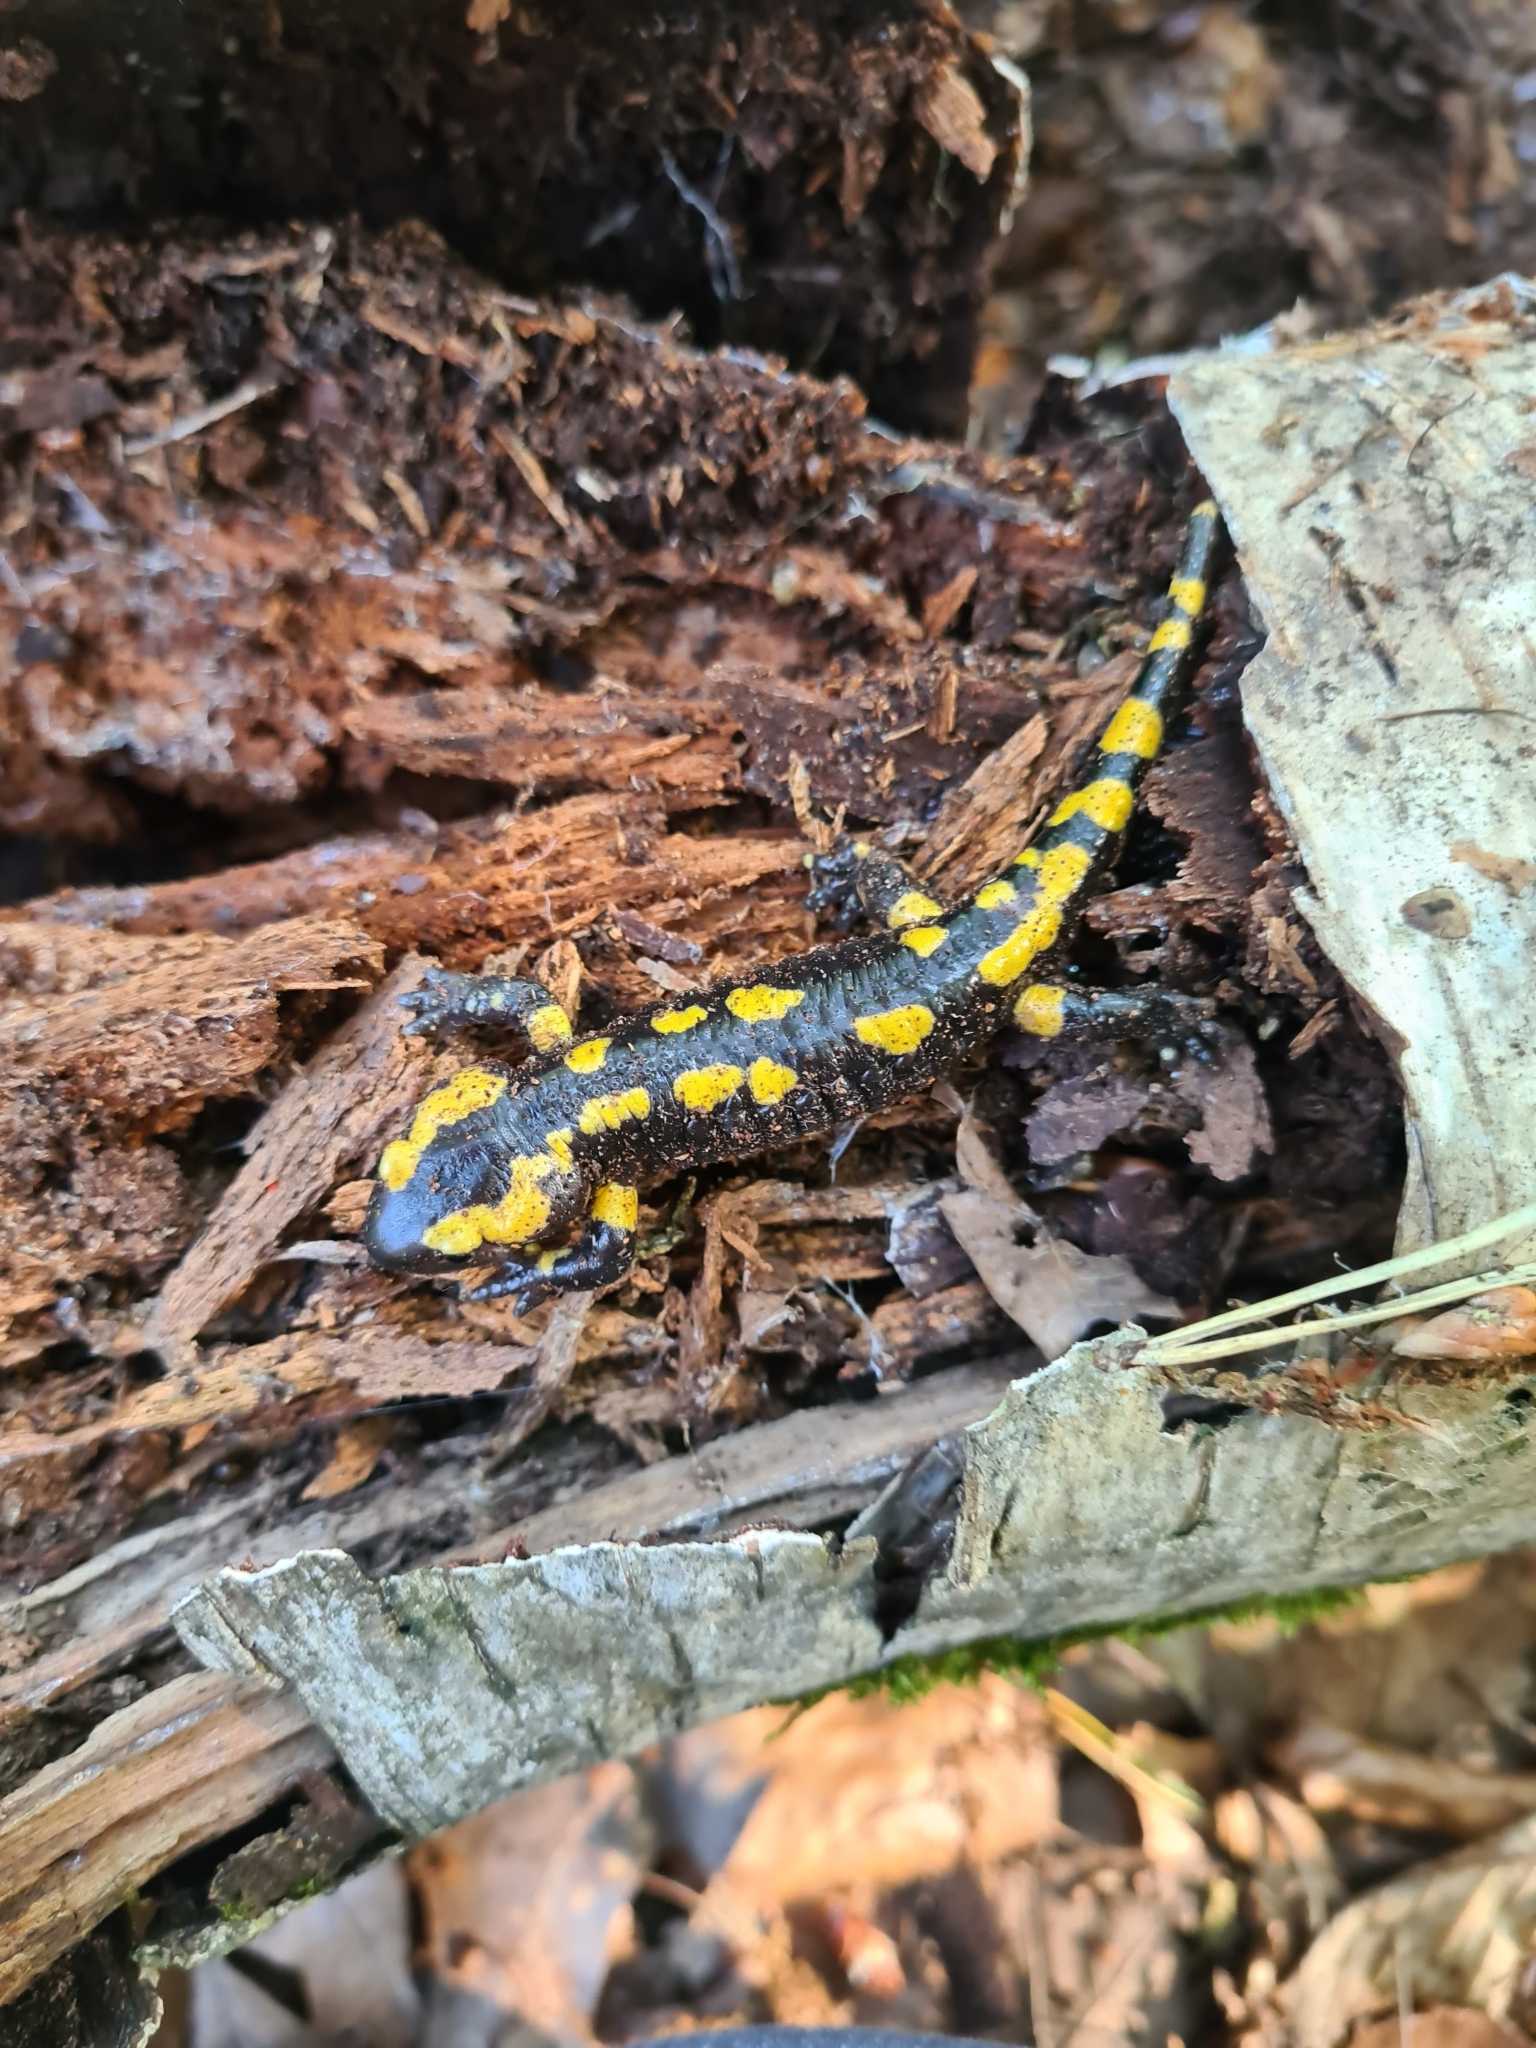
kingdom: Animalia
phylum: Chordata
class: Amphibia
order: Caudata
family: Salamandridae
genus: Salamandra
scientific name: Salamandra salamandra
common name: Fire salamander
